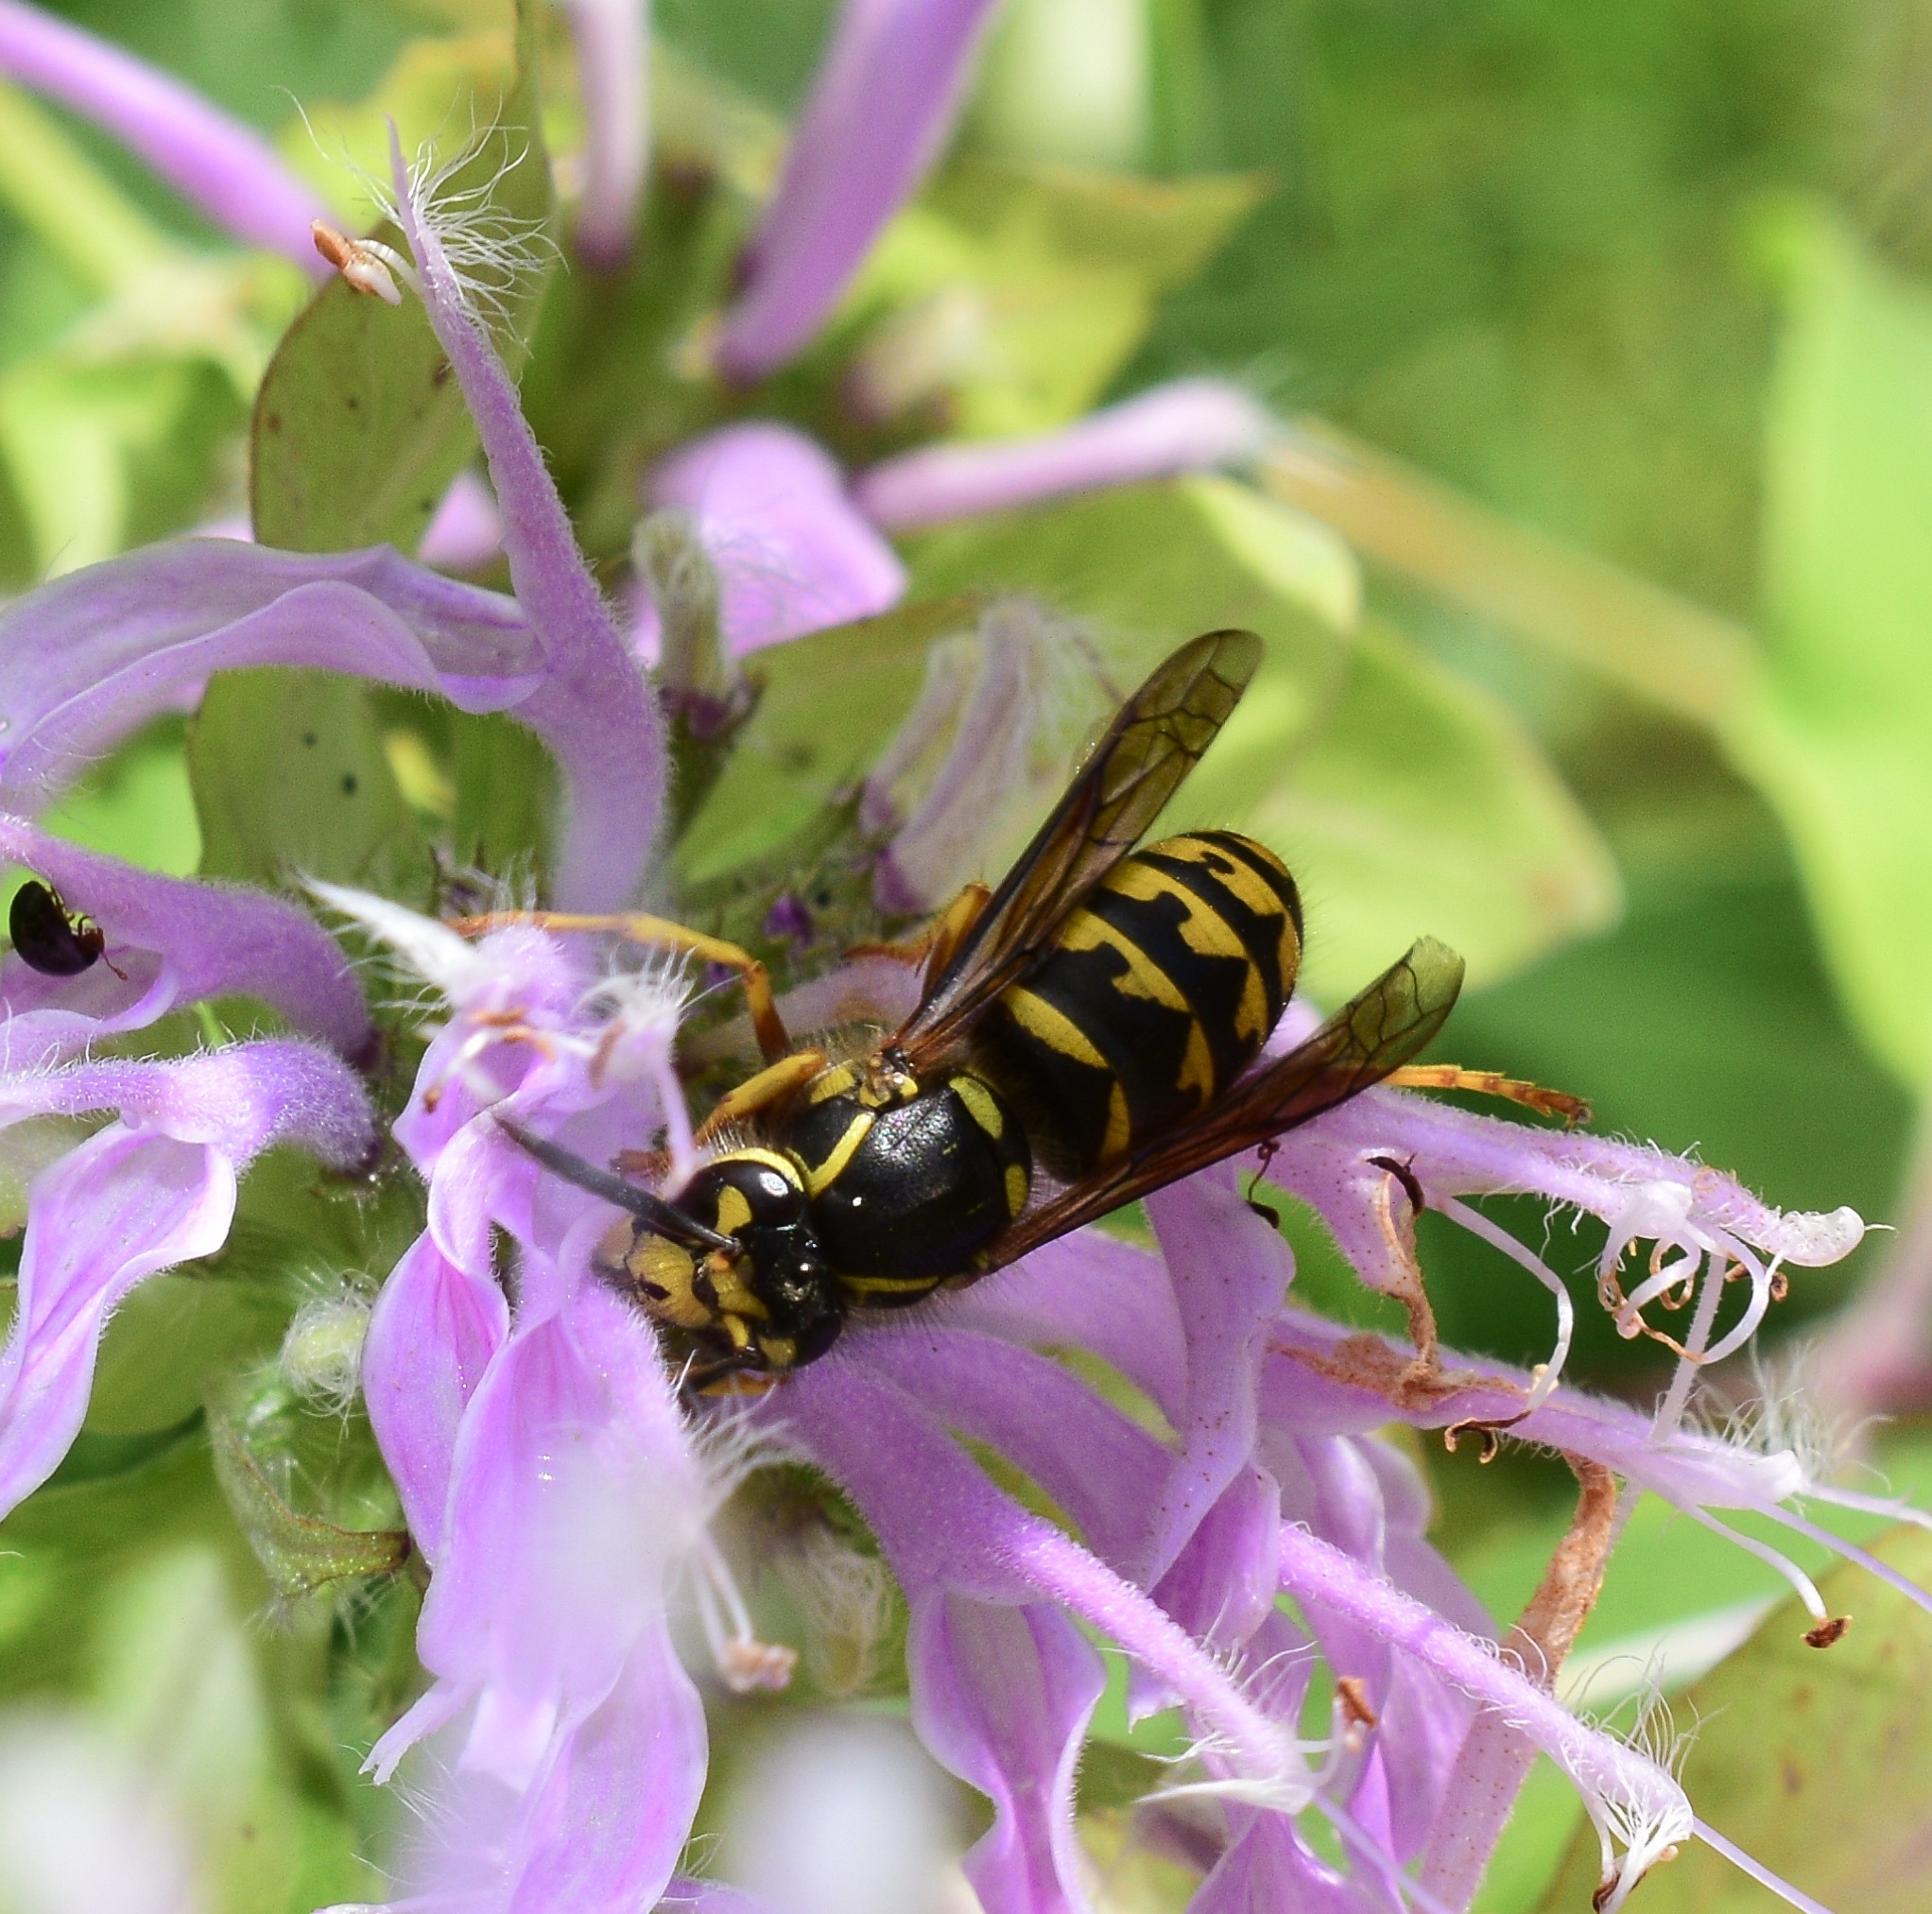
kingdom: Animalia
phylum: Arthropoda
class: Insecta
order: Hymenoptera
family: Vespidae
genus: Dolichovespula
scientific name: Dolichovespula arenaria
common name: Aerial yellowjacket
